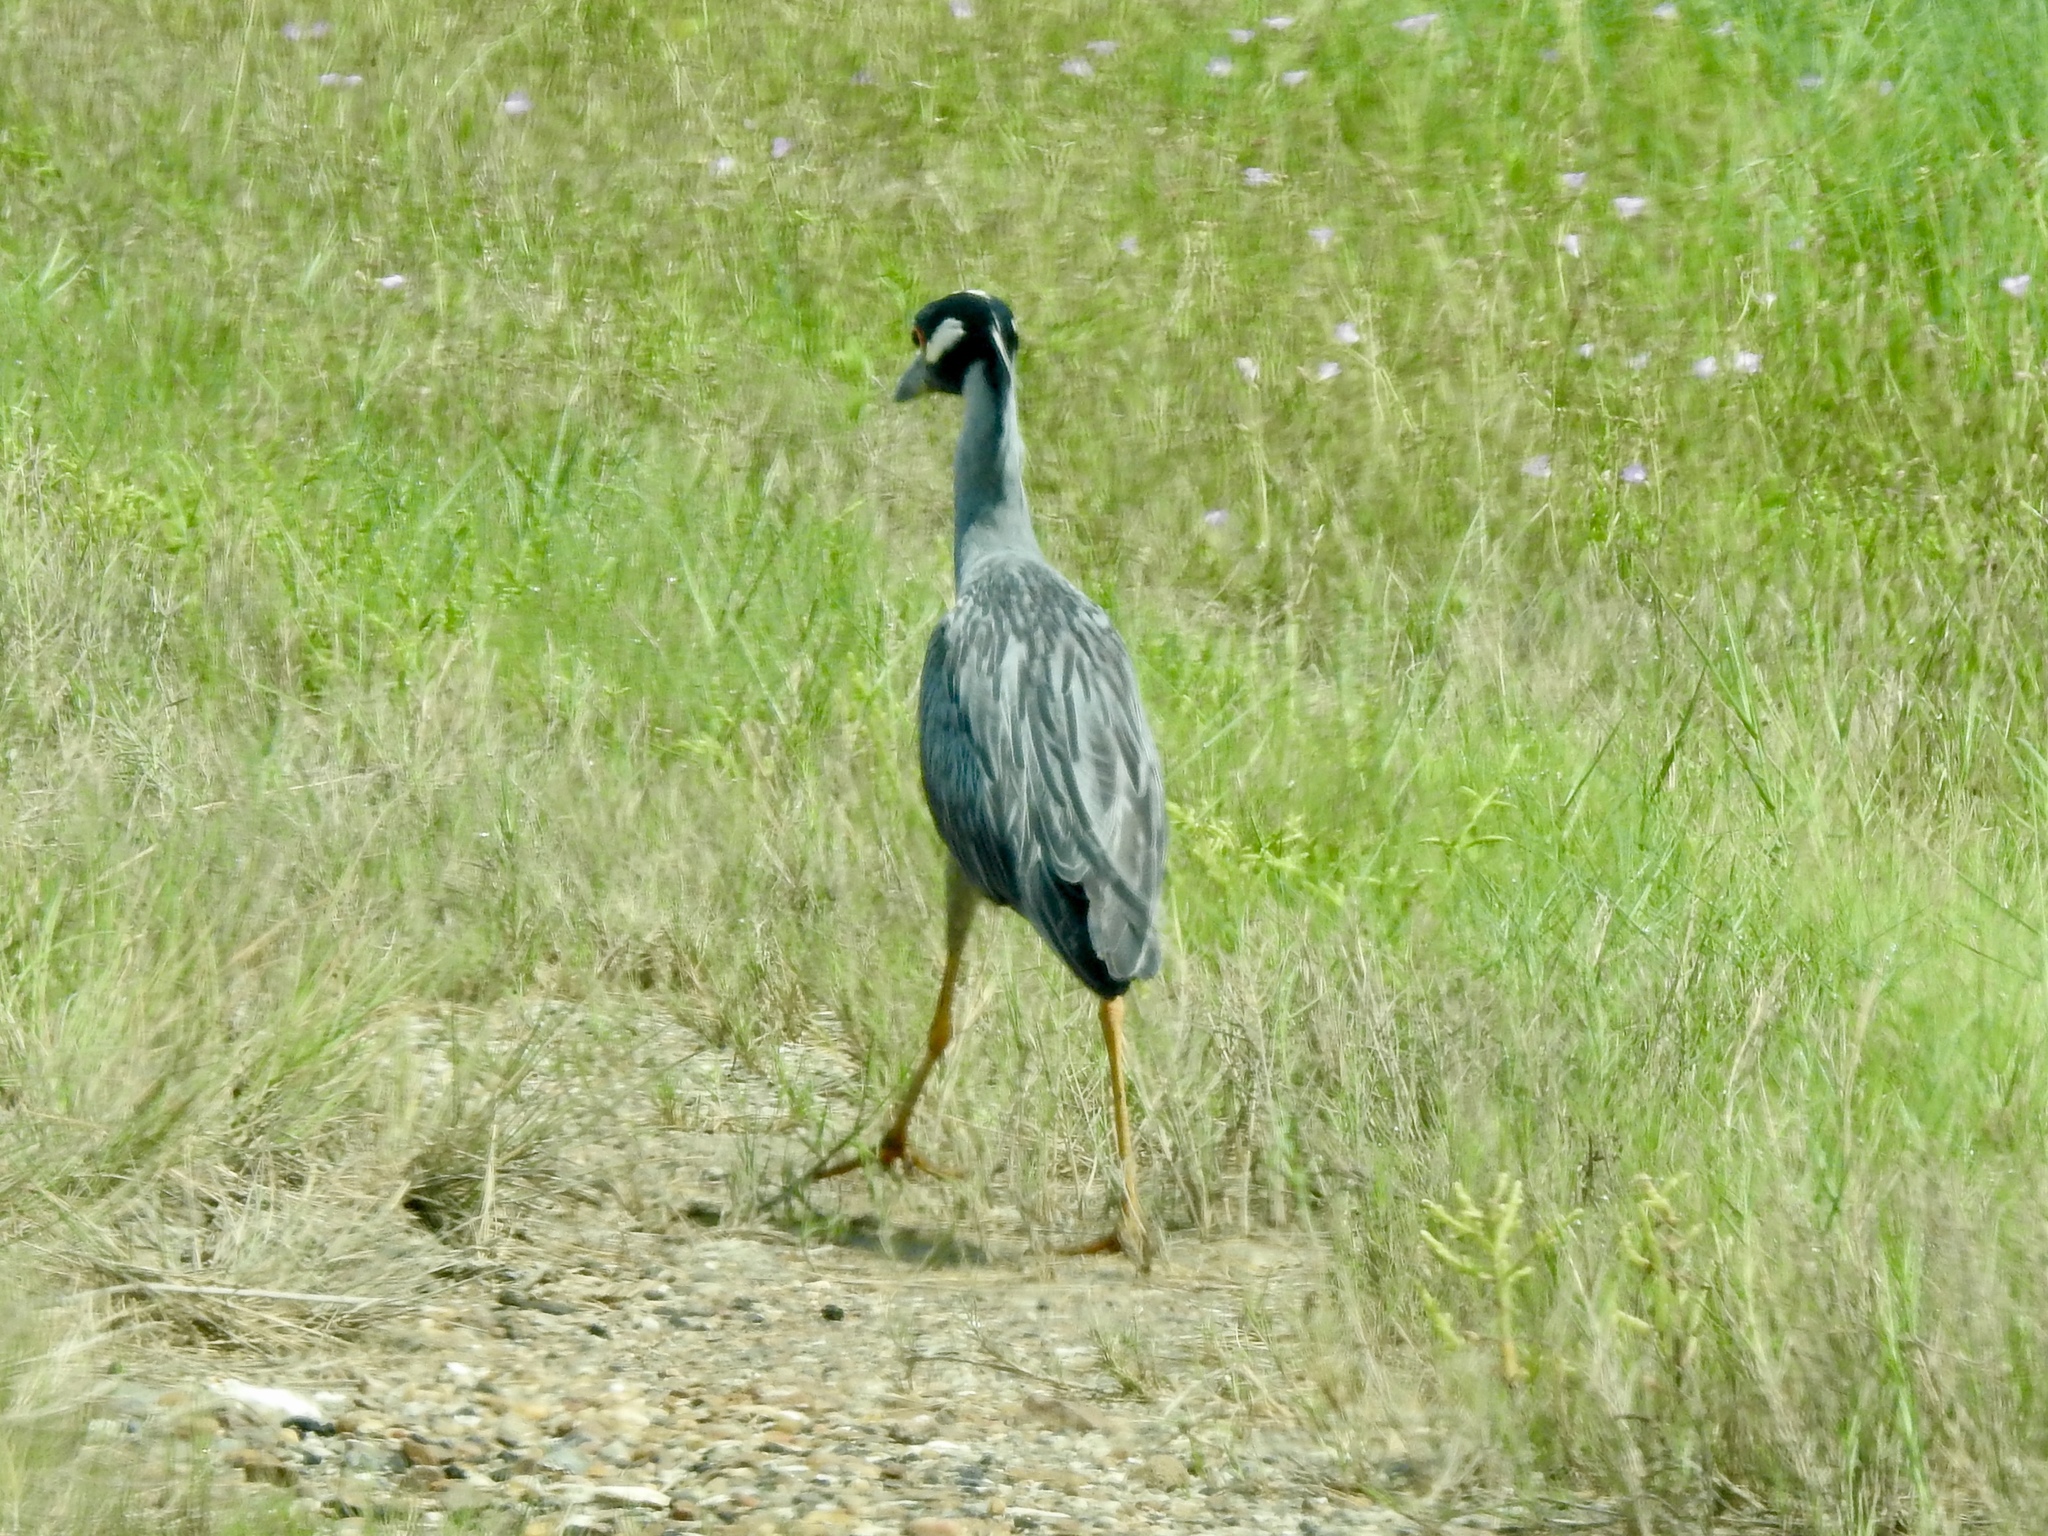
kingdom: Animalia
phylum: Chordata
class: Aves
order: Pelecaniformes
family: Ardeidae
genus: Nyctanassa
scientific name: Nyctanassa violacea
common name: Yellow-crowned night heron
